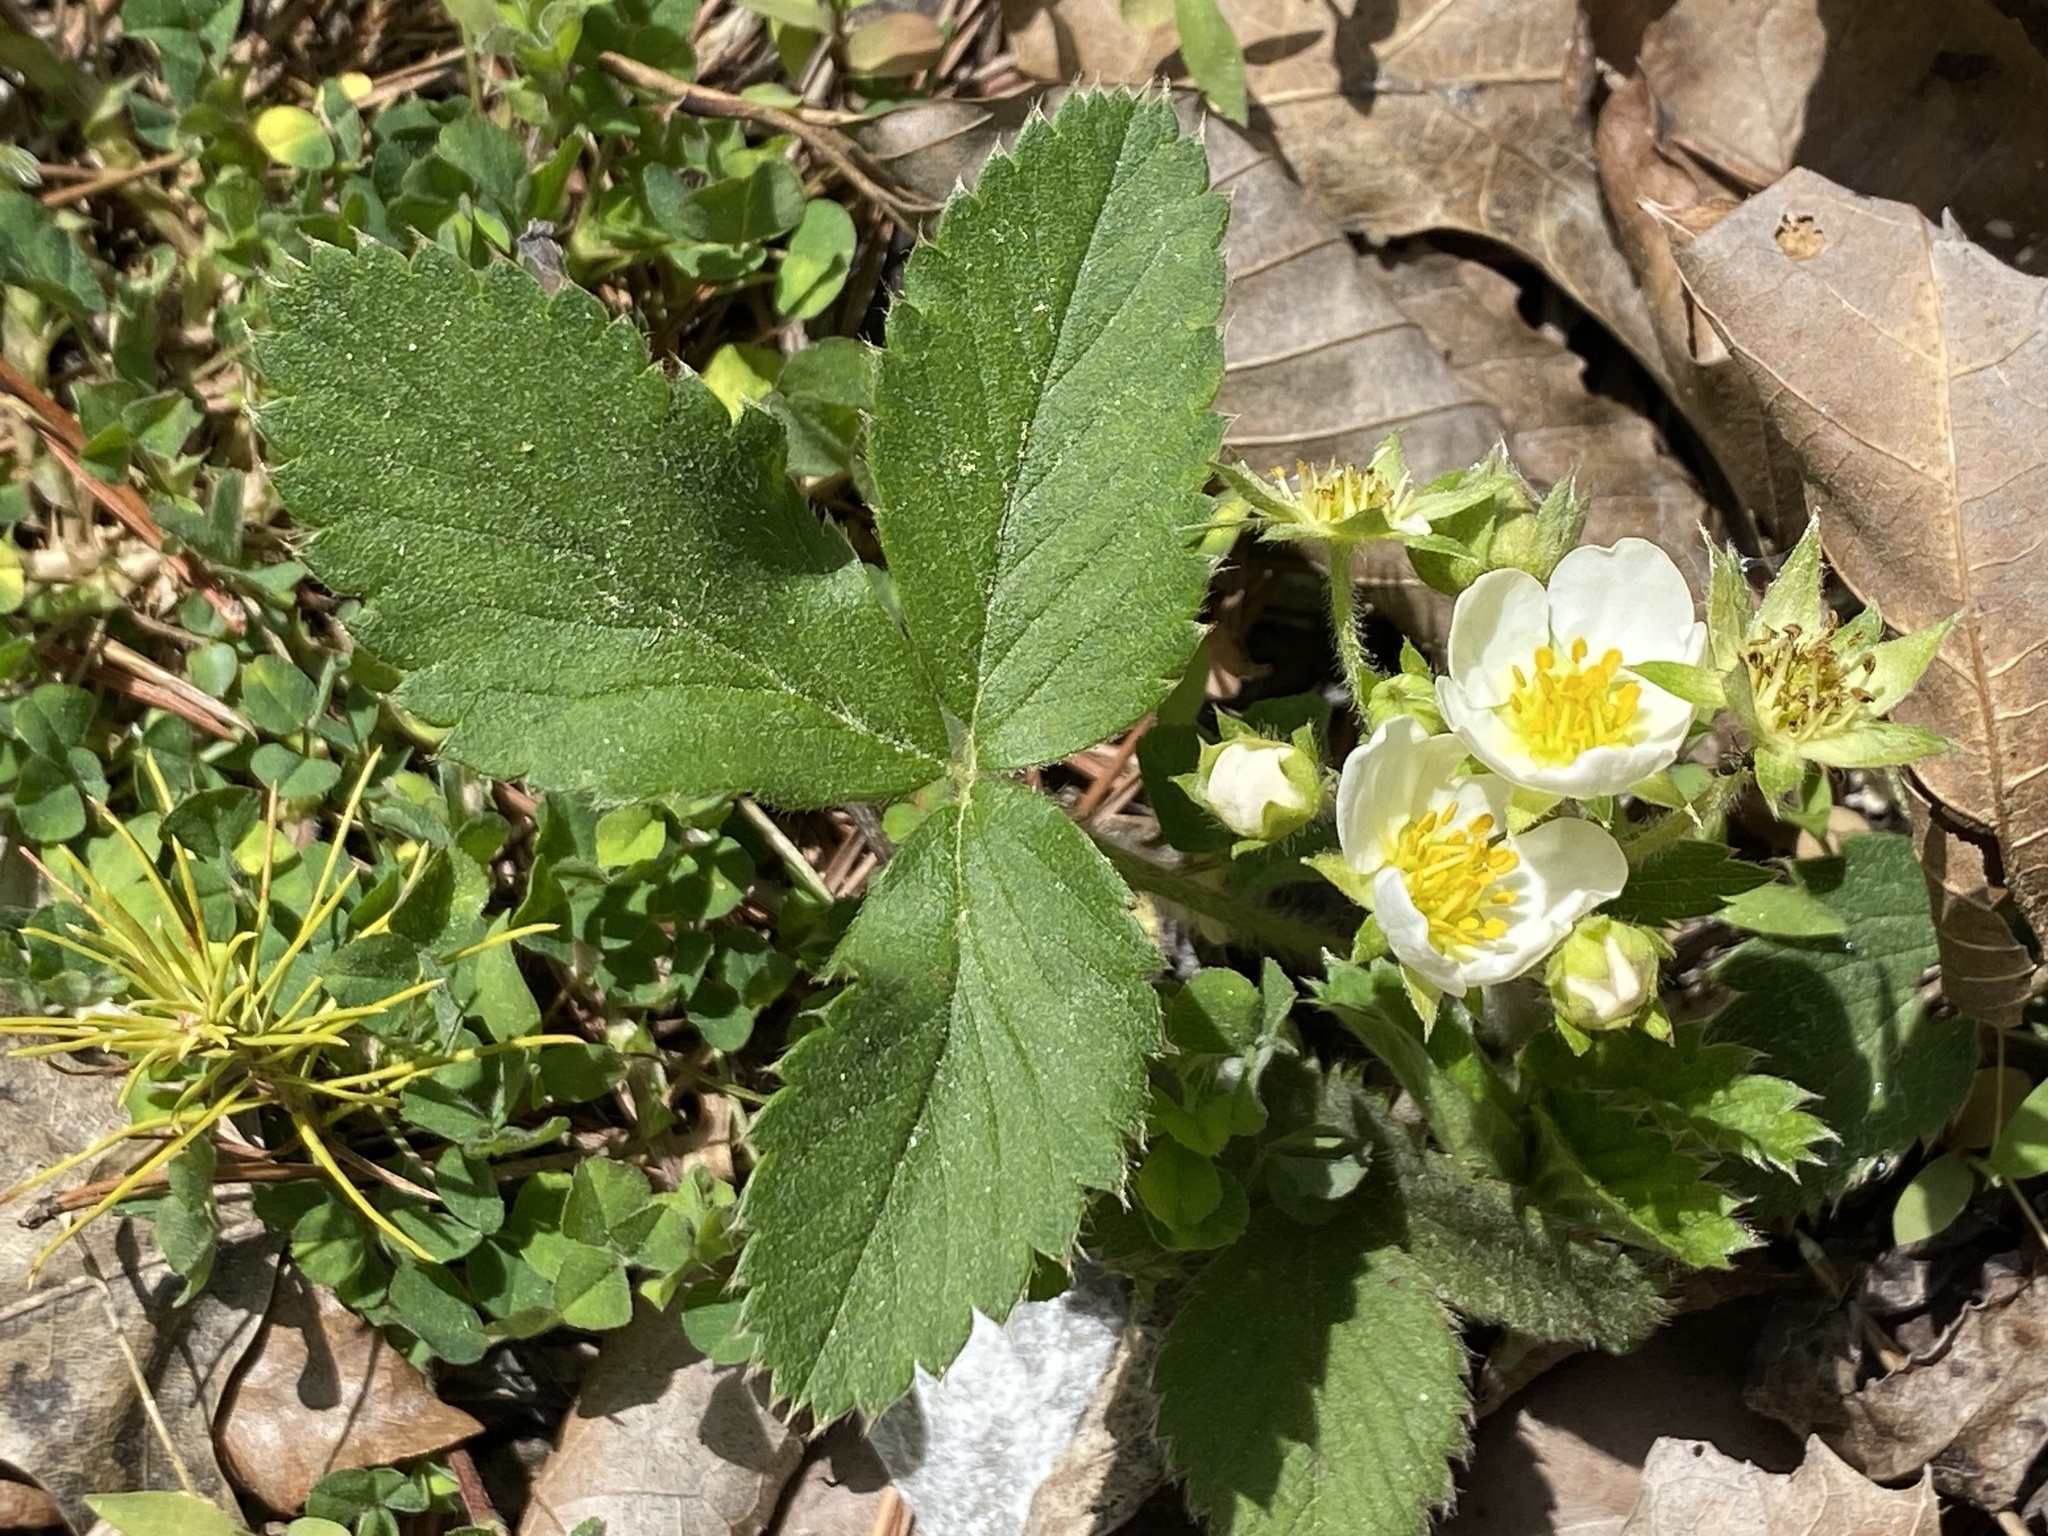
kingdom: Plantae
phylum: Tracheophyta
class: Magnoliopsida
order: Rosales
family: Rosaceae
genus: Fragaria
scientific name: Fragaria virginiana
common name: Thickleaved wild strawberry
